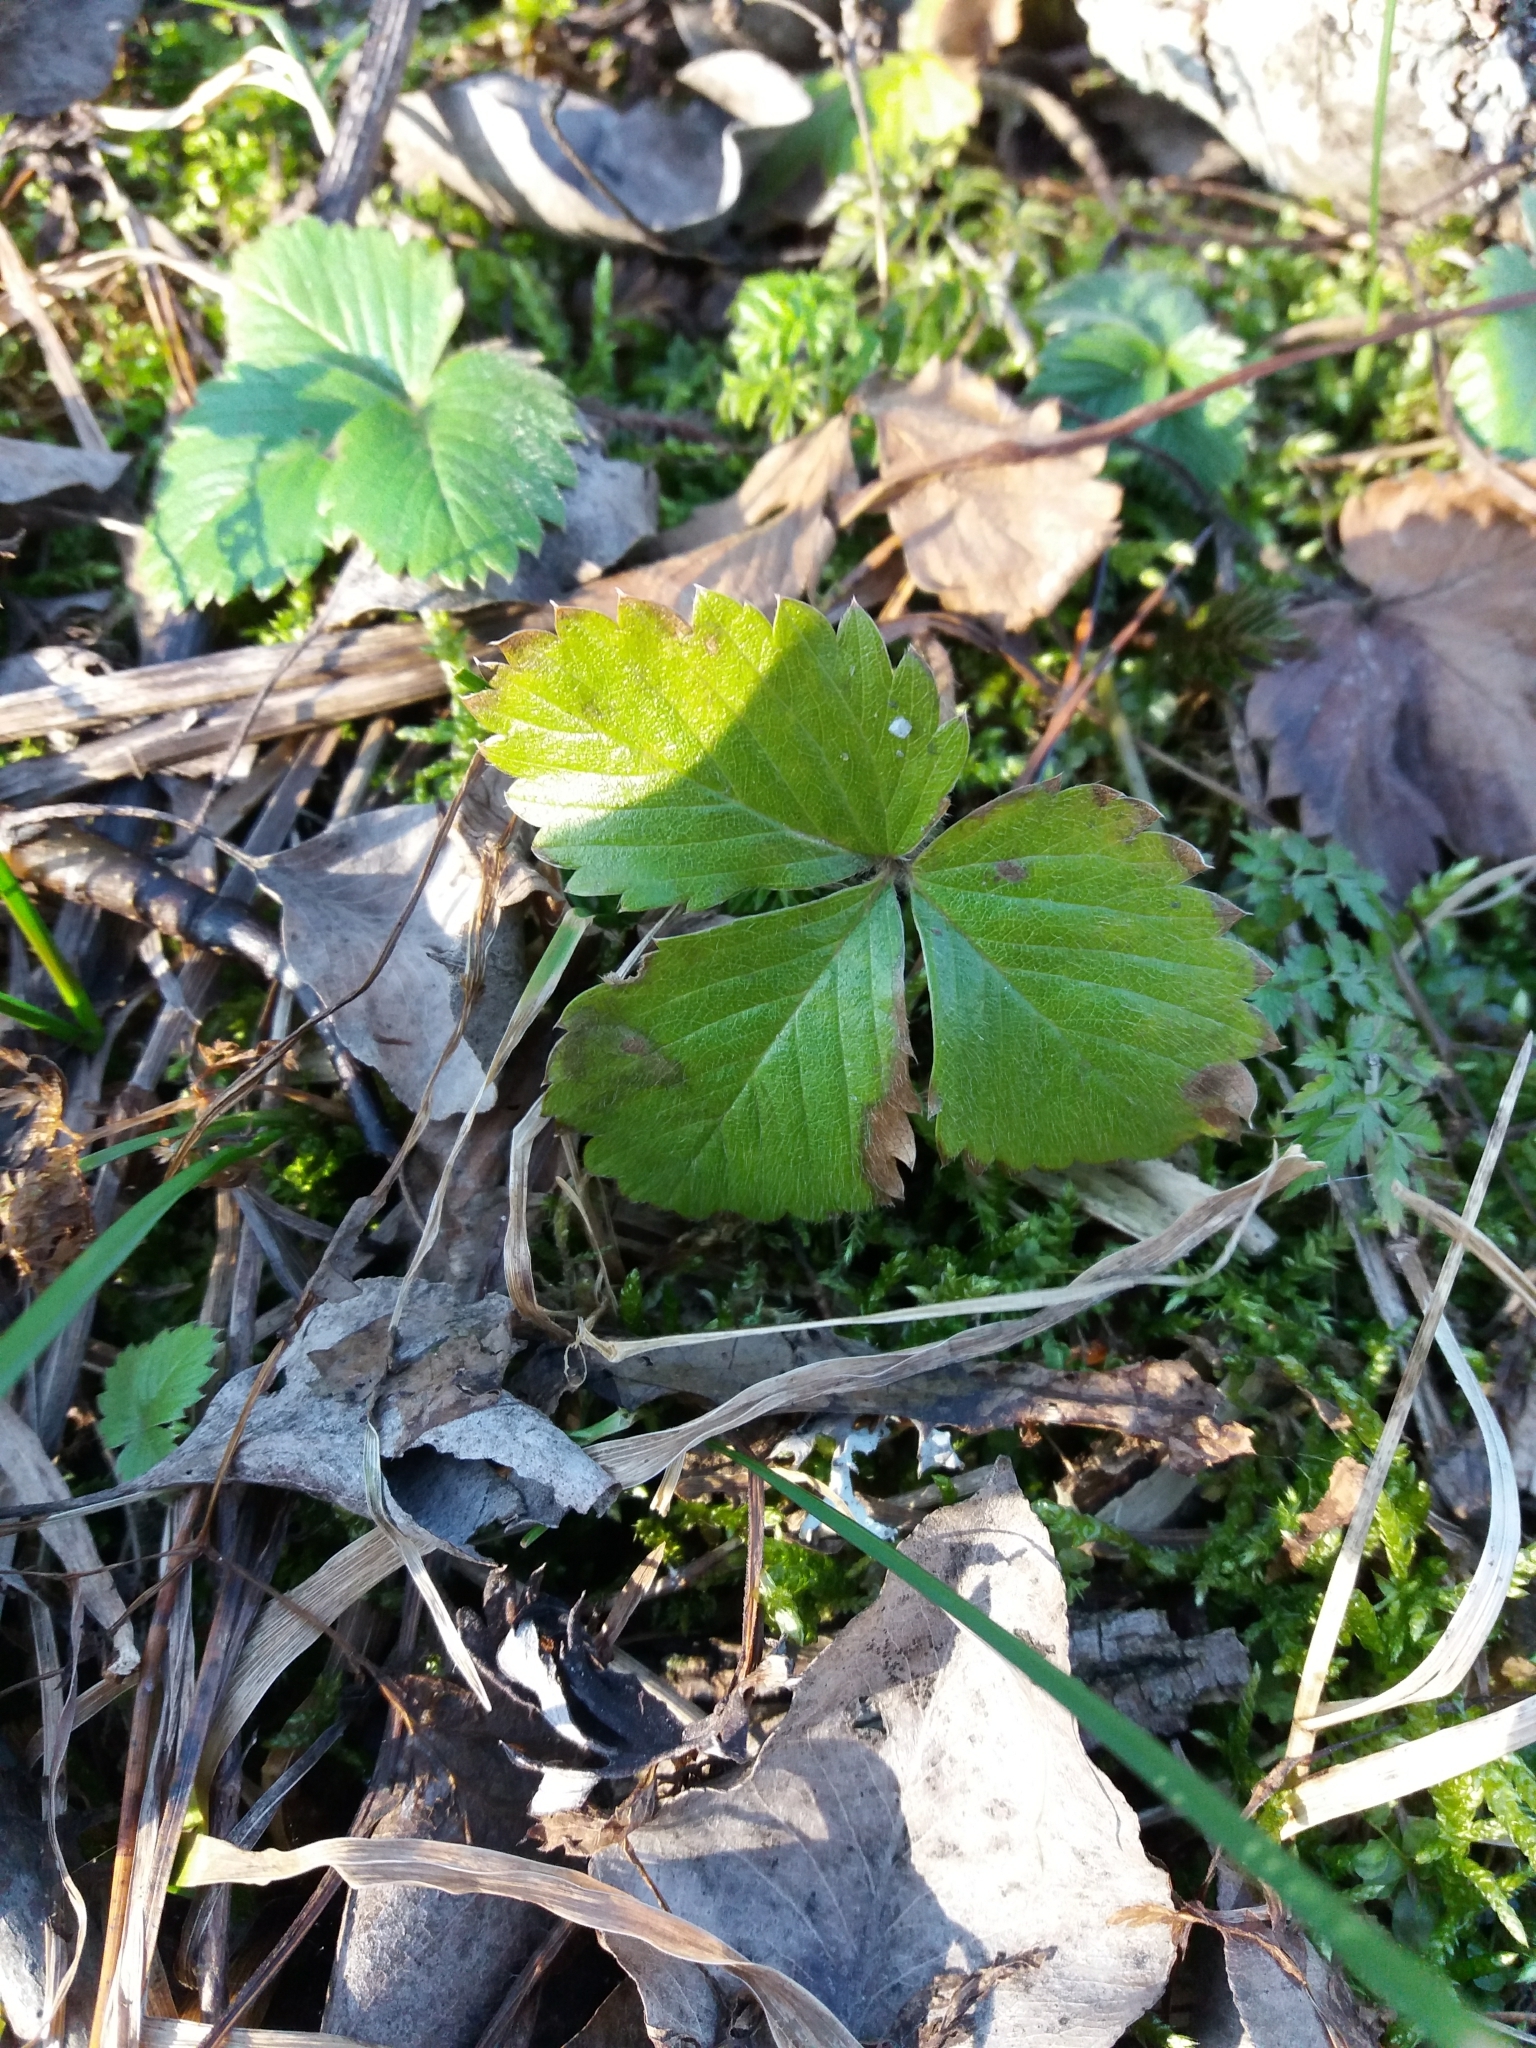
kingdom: Plantae
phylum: Tracheophyta
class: Magnoliopsida
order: Rosales
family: Rosaceae
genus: Fragaria
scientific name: Fragaria vesca
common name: Wild strawberry
